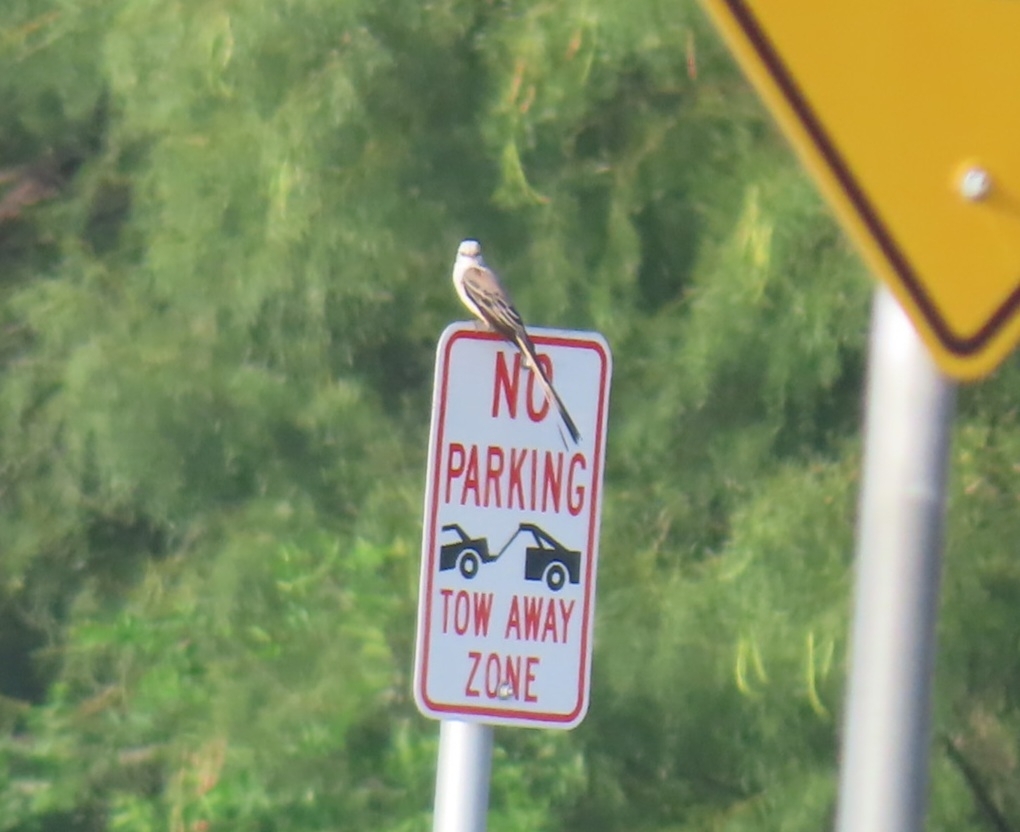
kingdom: Animalia
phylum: Chordata
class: Aves
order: Passeriformes
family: Tyrannidae
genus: Tyrannus
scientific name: Tyrannus forficatus
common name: Scissor-tailed flycatcher
